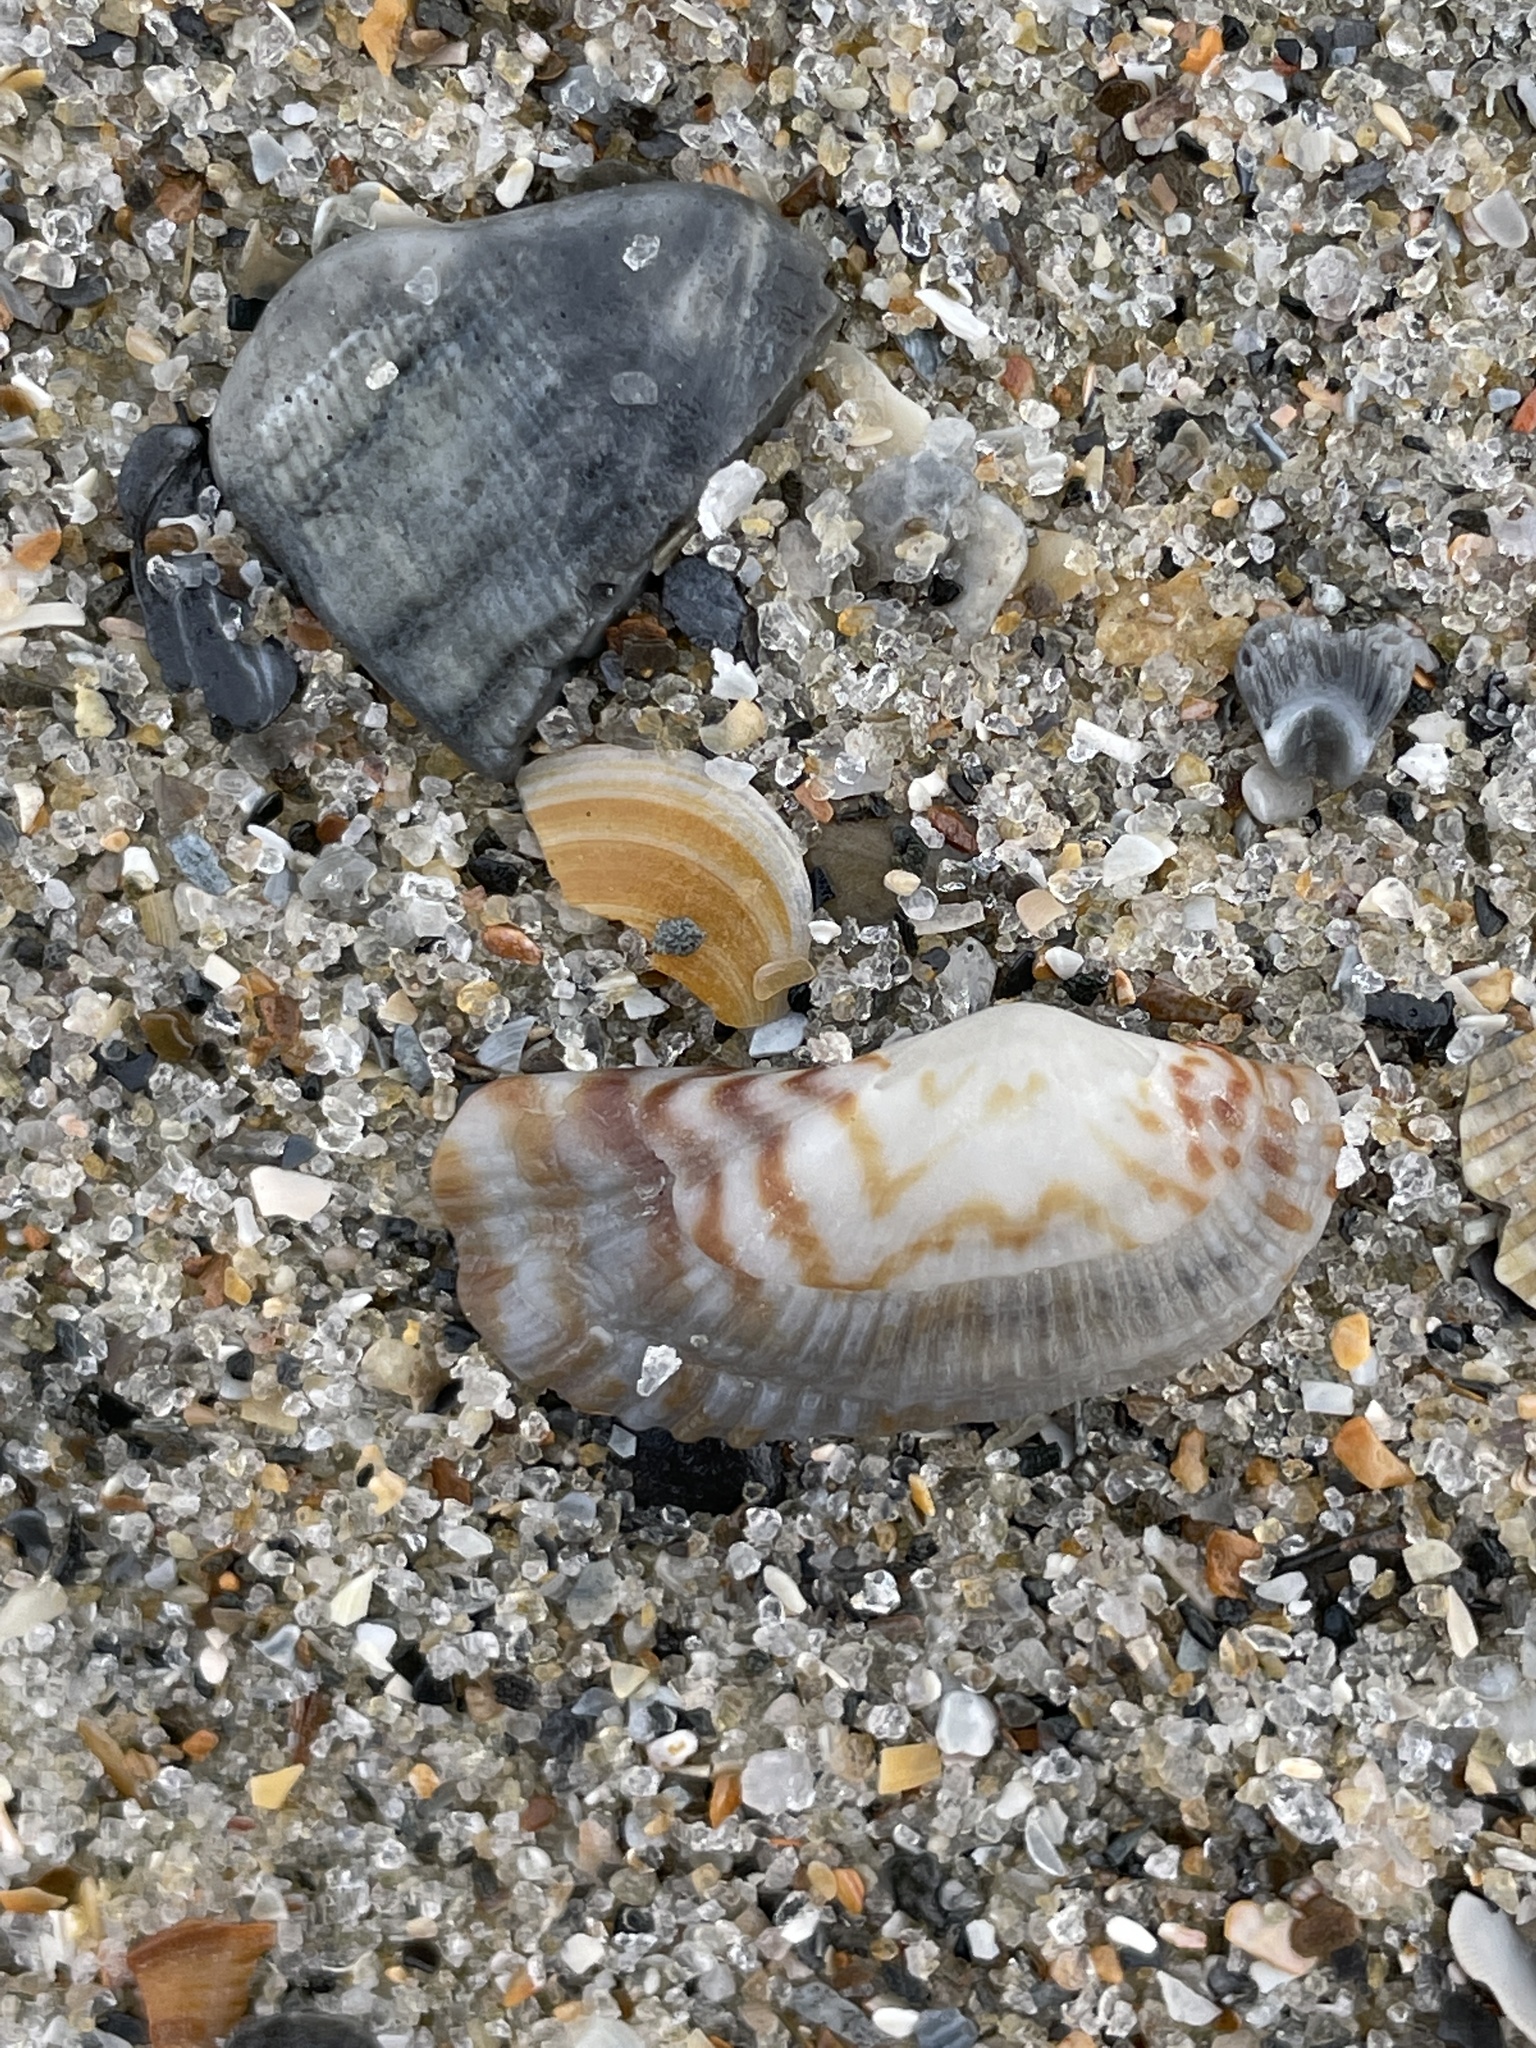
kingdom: Animalia
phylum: Mollusca
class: Bivalvia
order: Arcida
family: Arcidae
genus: Arca
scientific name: Arca zebra
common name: Atlantic turkey wing
